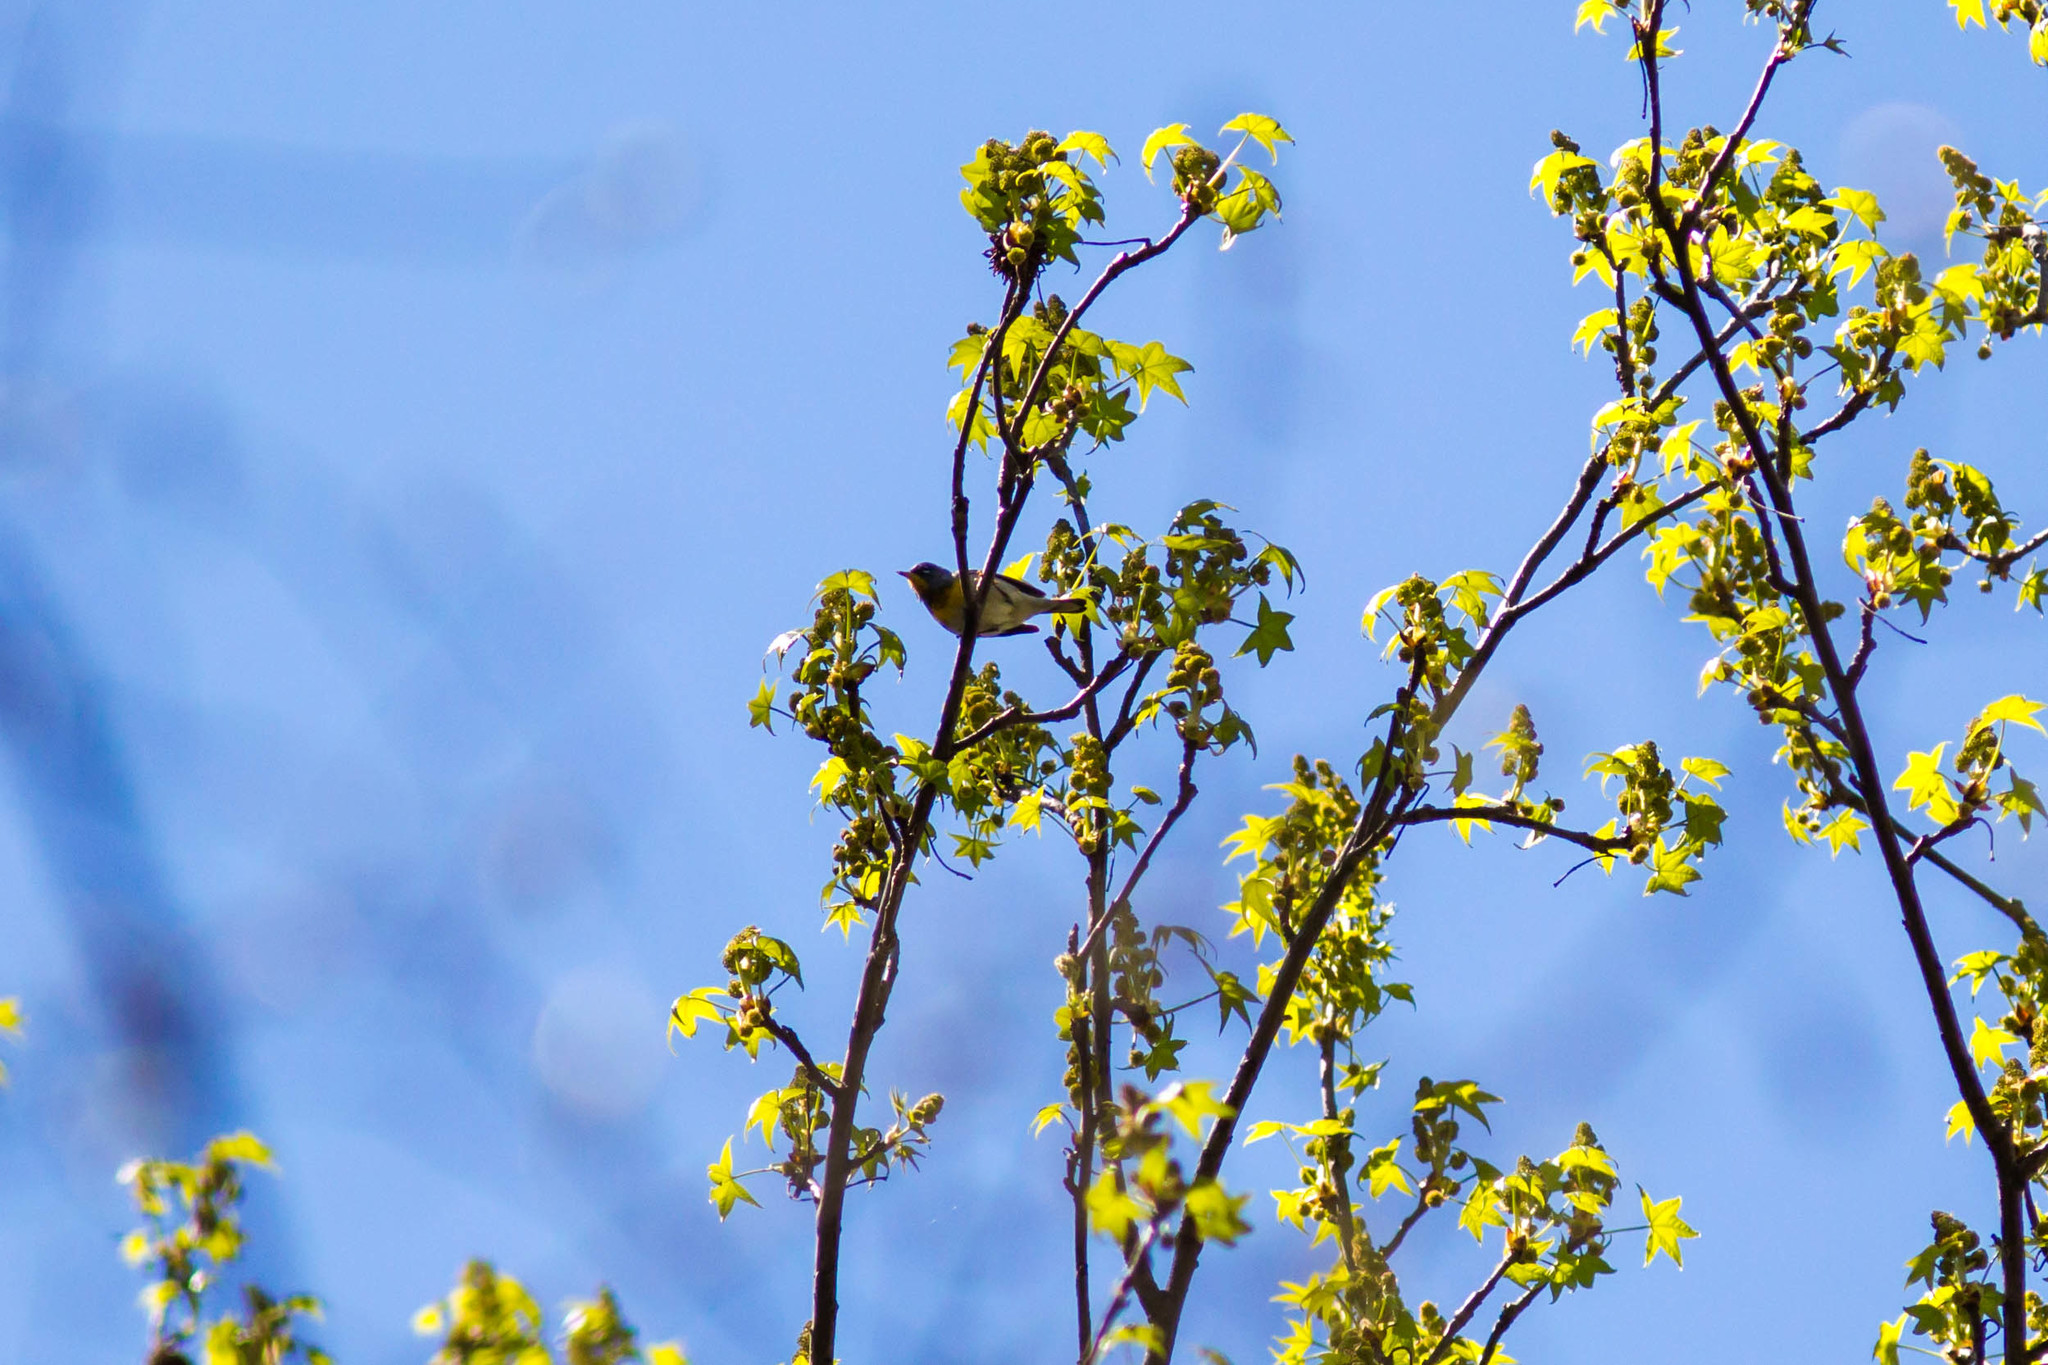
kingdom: Animalia
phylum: Chordata
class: Aves
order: Passeriformes
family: Parulidae
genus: Setophaga
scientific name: Setophaga americana
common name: Northern parula
